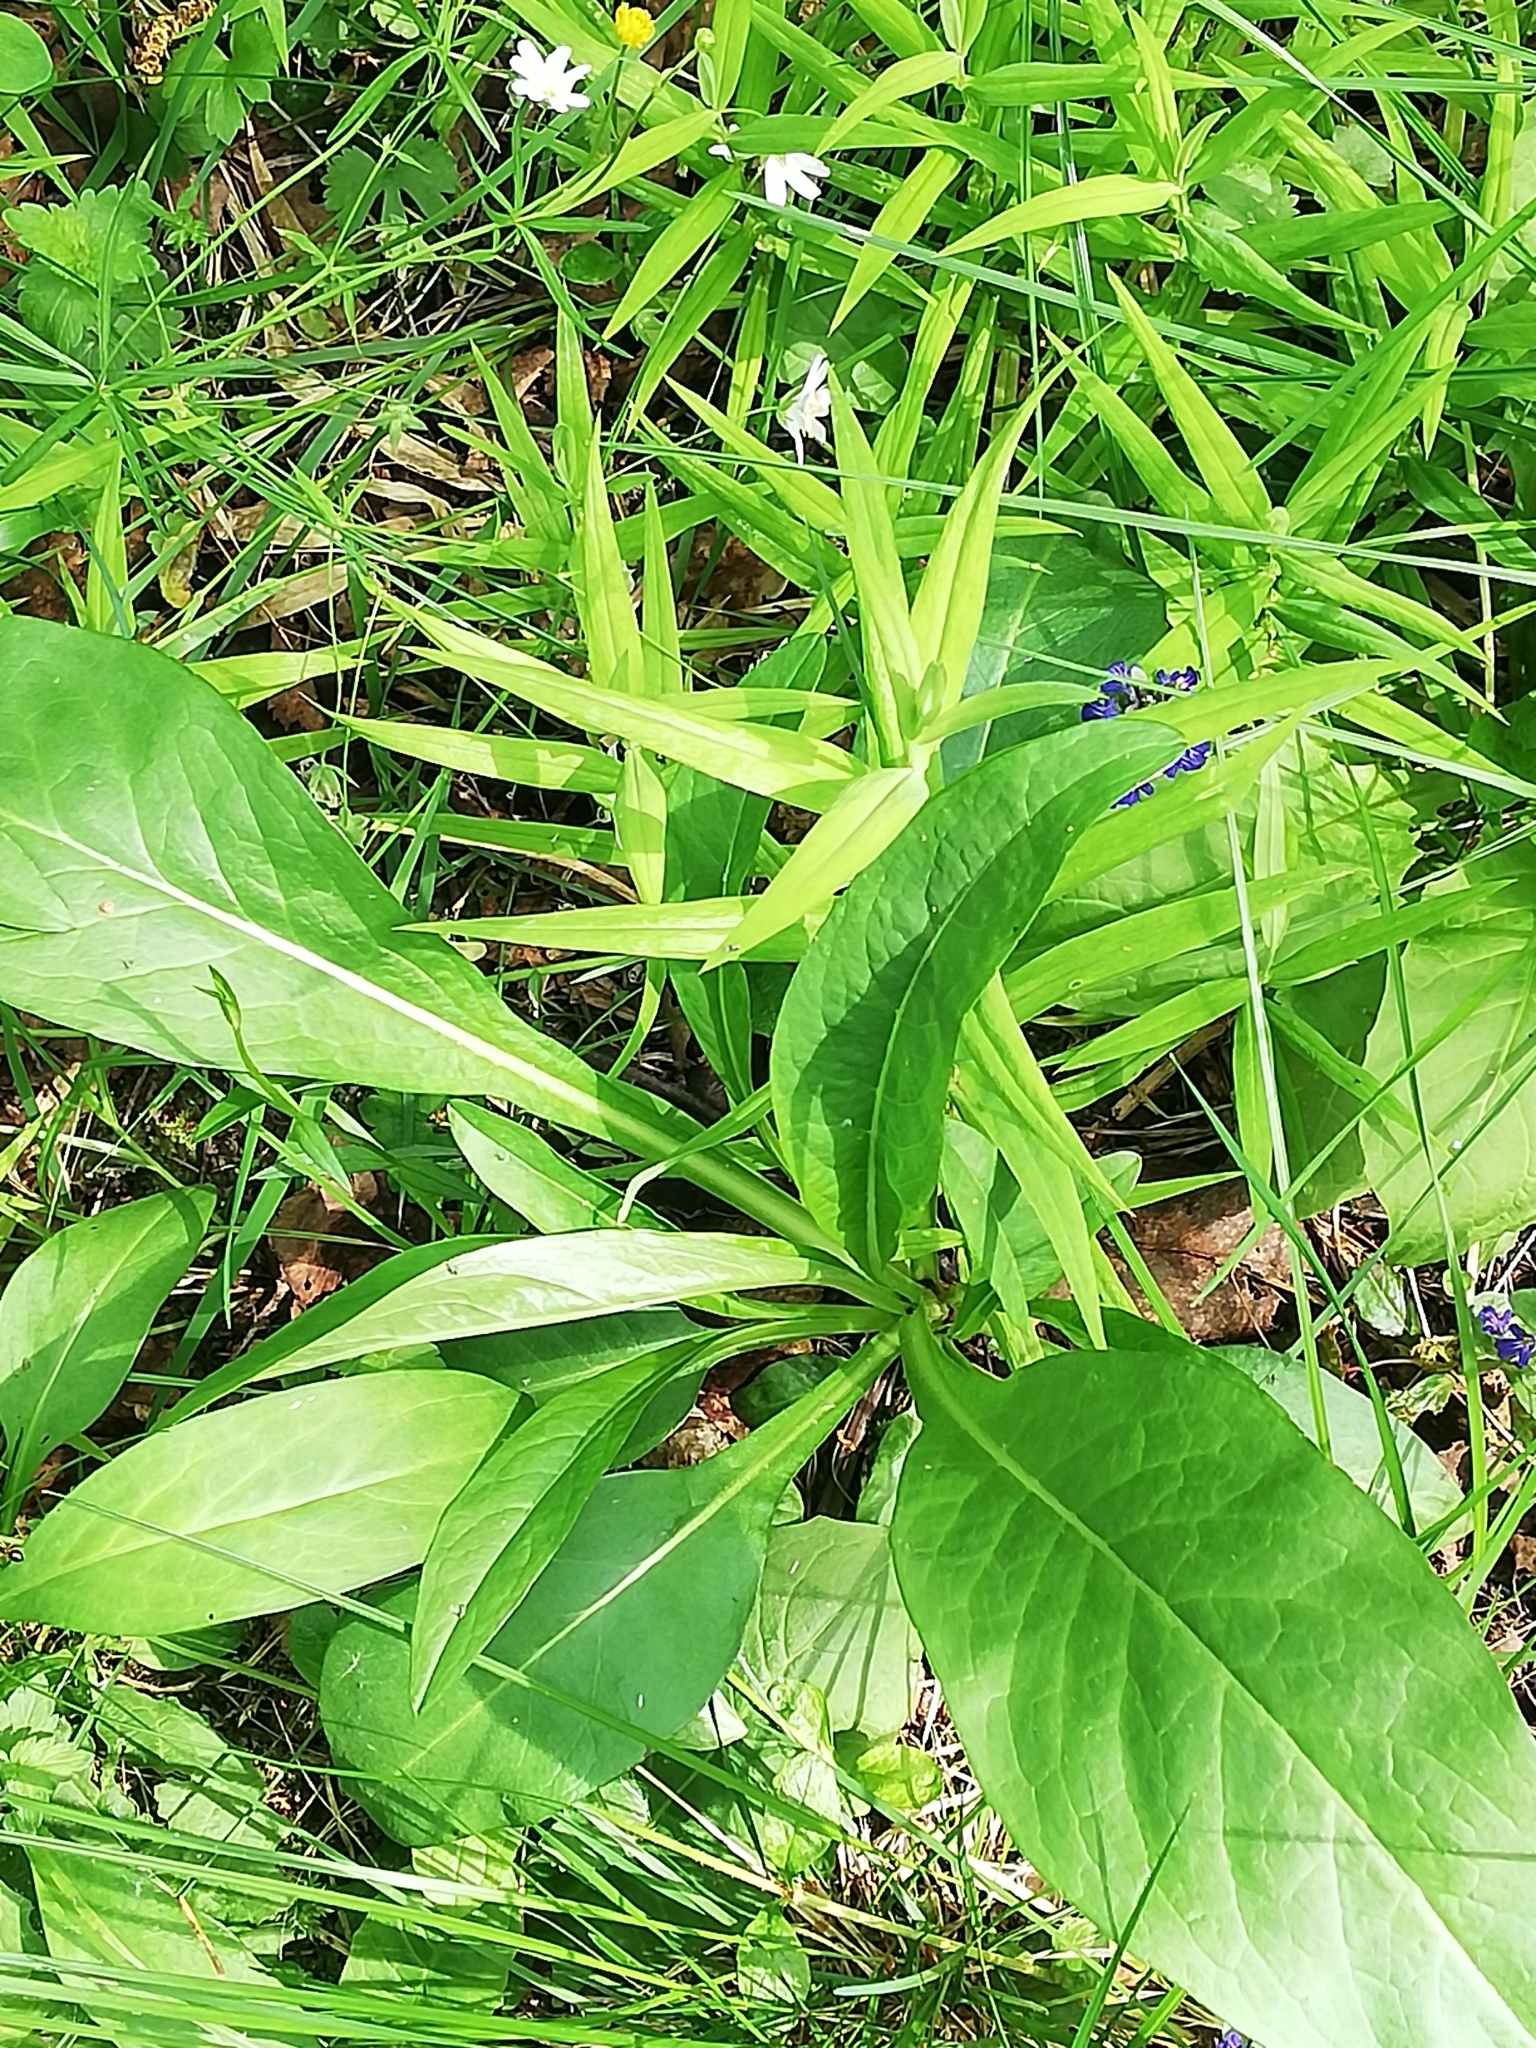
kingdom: Plantae
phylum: Tracheophyta
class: Magnoliopsida
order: Dipsacales
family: Caprifoliaceae
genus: Succisa
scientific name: Succisa pratensis
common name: Devil's-bit
